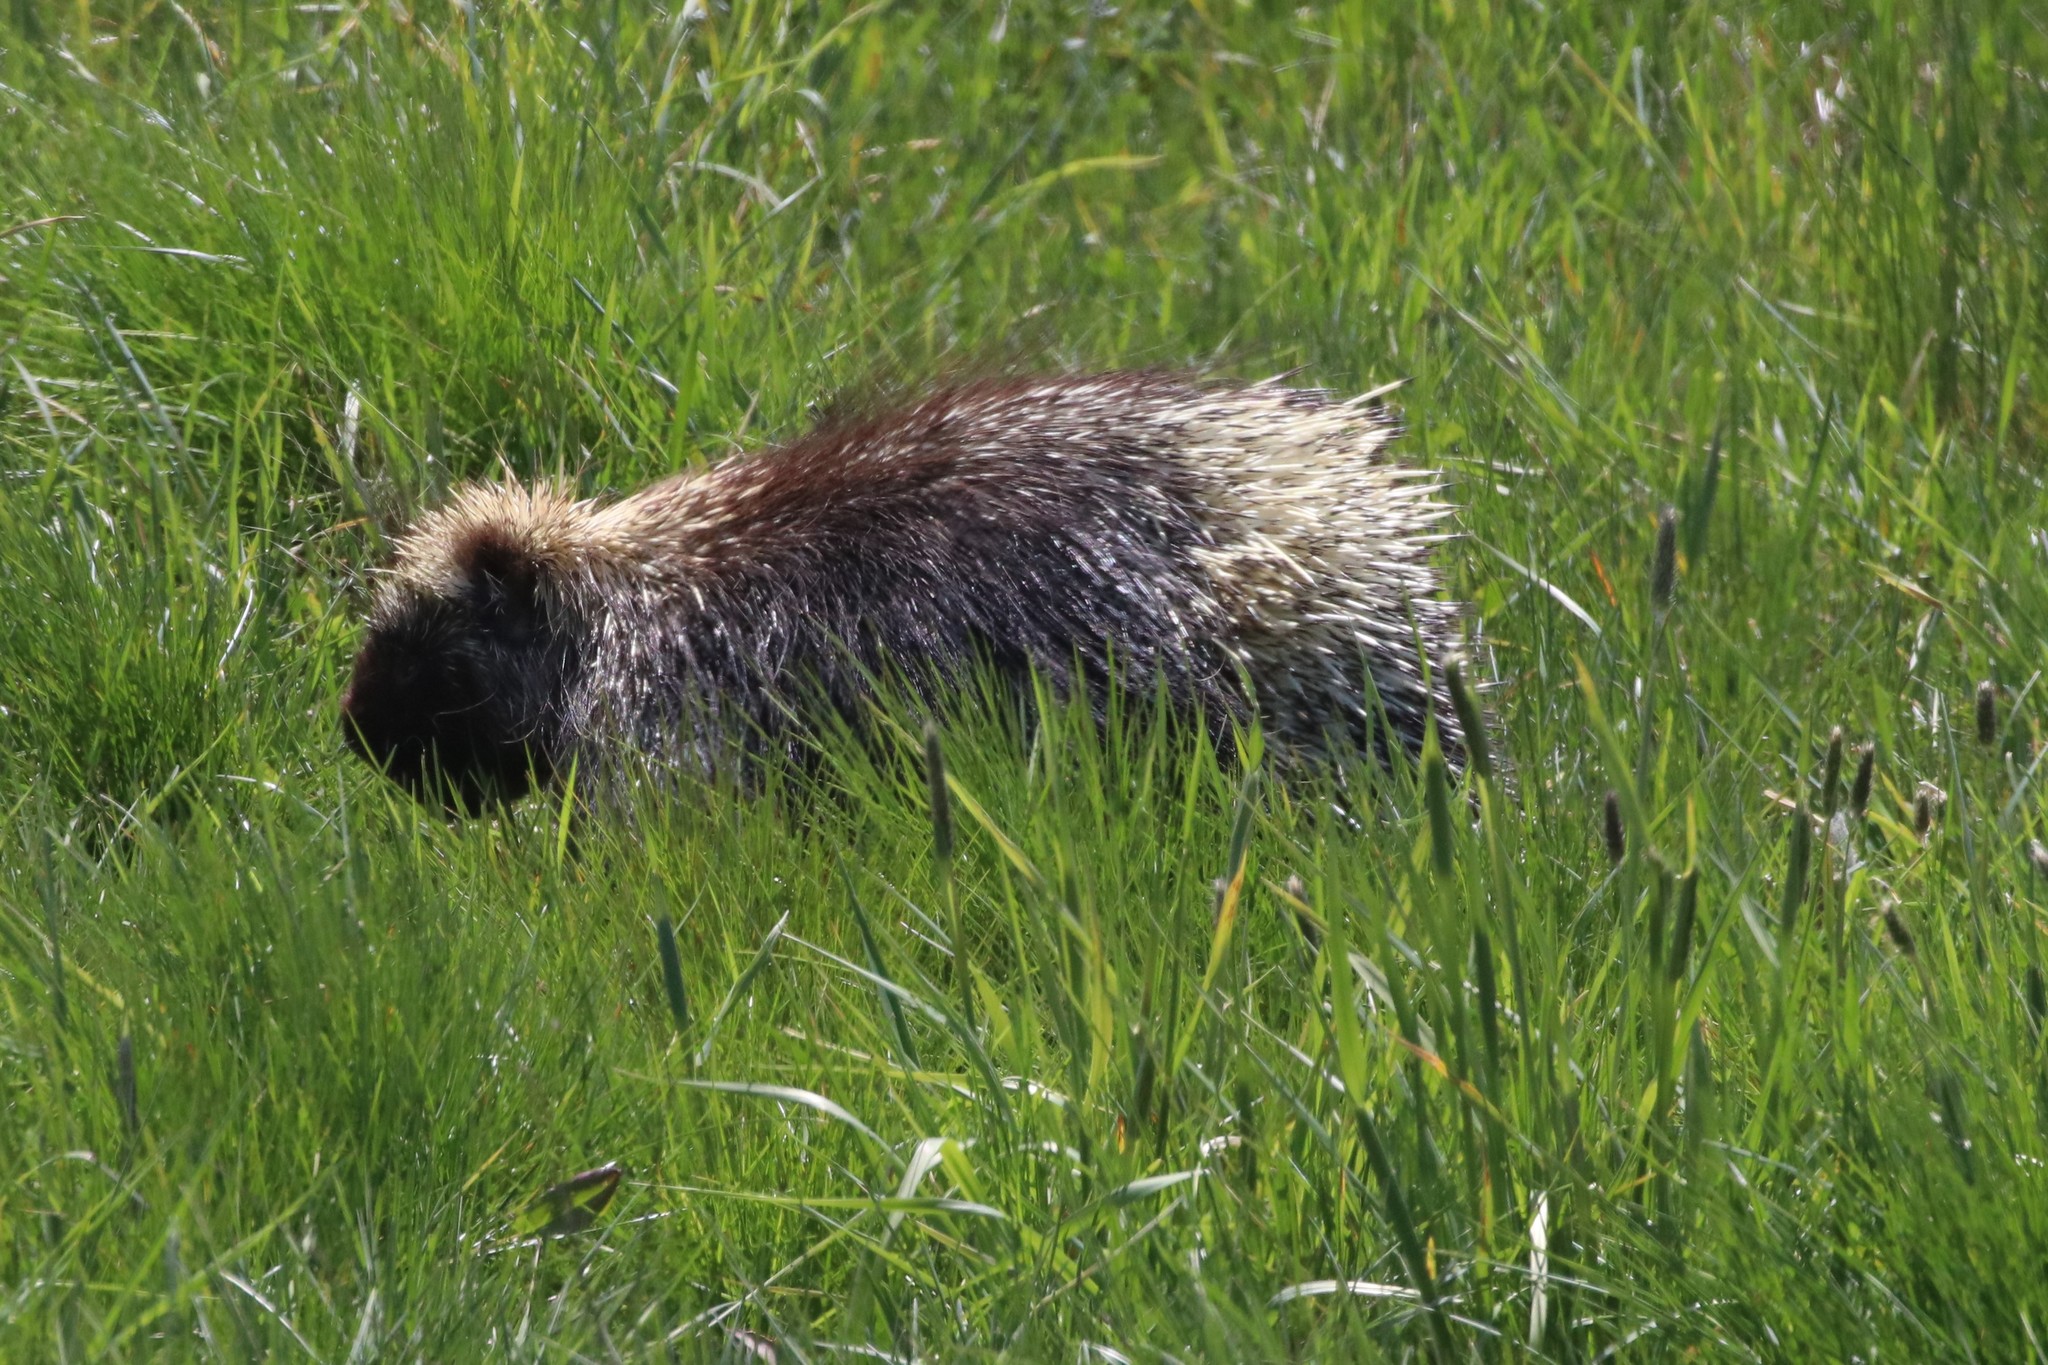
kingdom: Animalia
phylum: Chordata
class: Mammalia
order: Rodentia
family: Erethizontidae
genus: Erethizon
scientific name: Erethizon dorsatus
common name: North american porcupine
